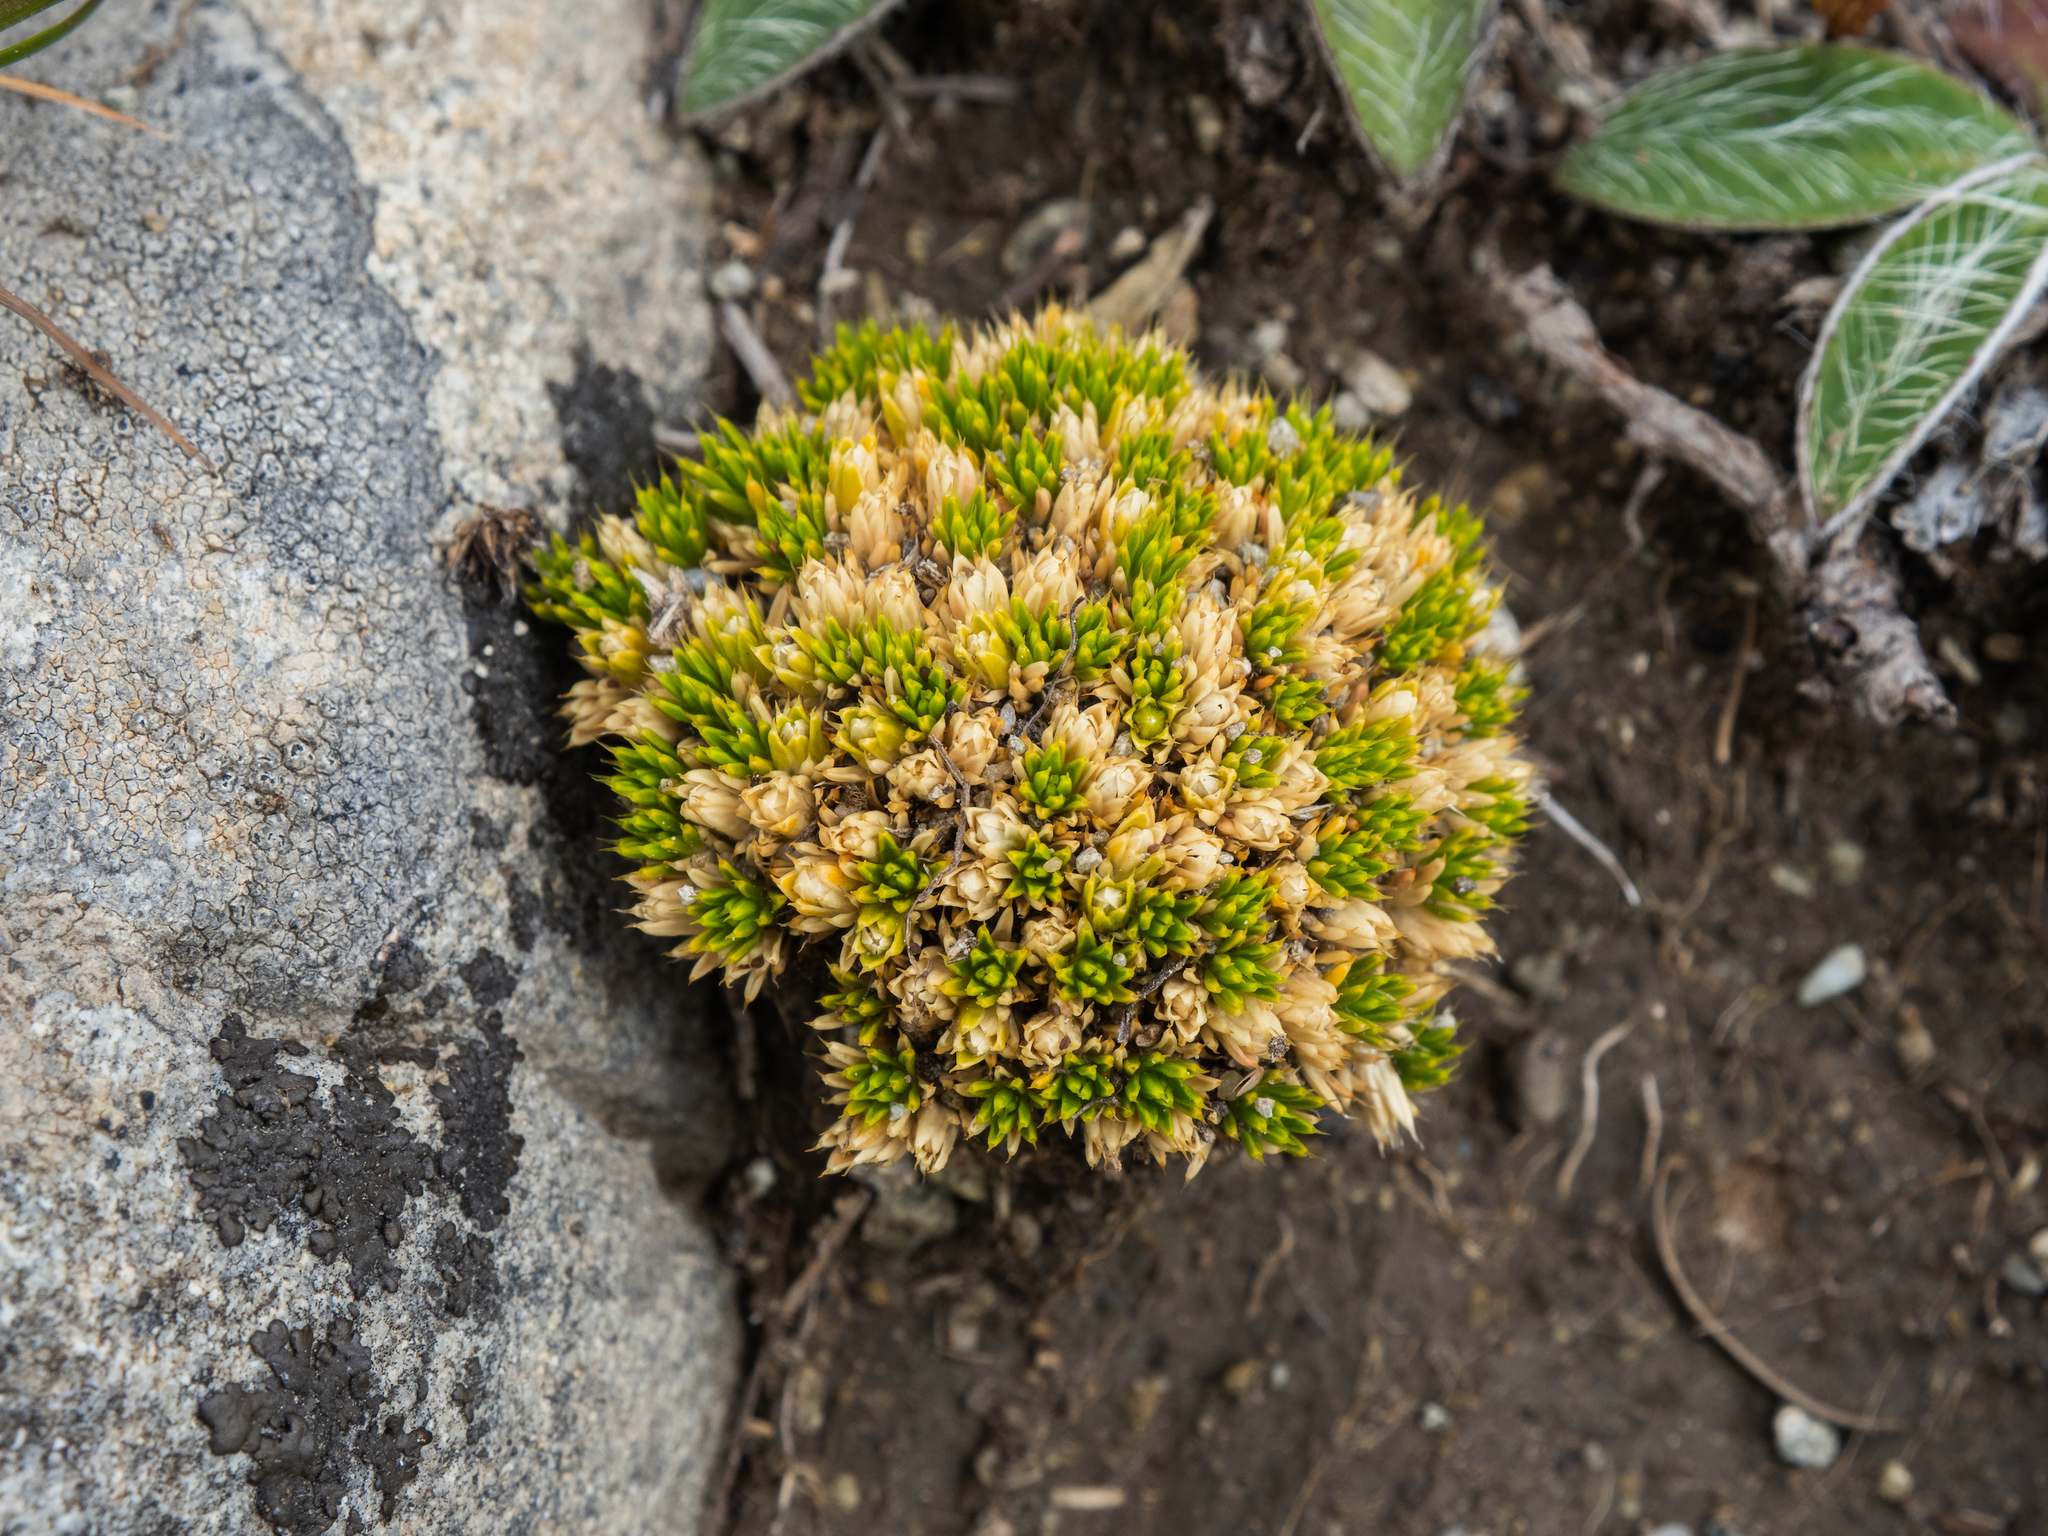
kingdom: Plantae
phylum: Tracheophyta
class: Magnoliopsida
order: Caryophyllales
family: Caryophyllaceae
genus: Colobanthus
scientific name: Colobanthus brevisepalus
